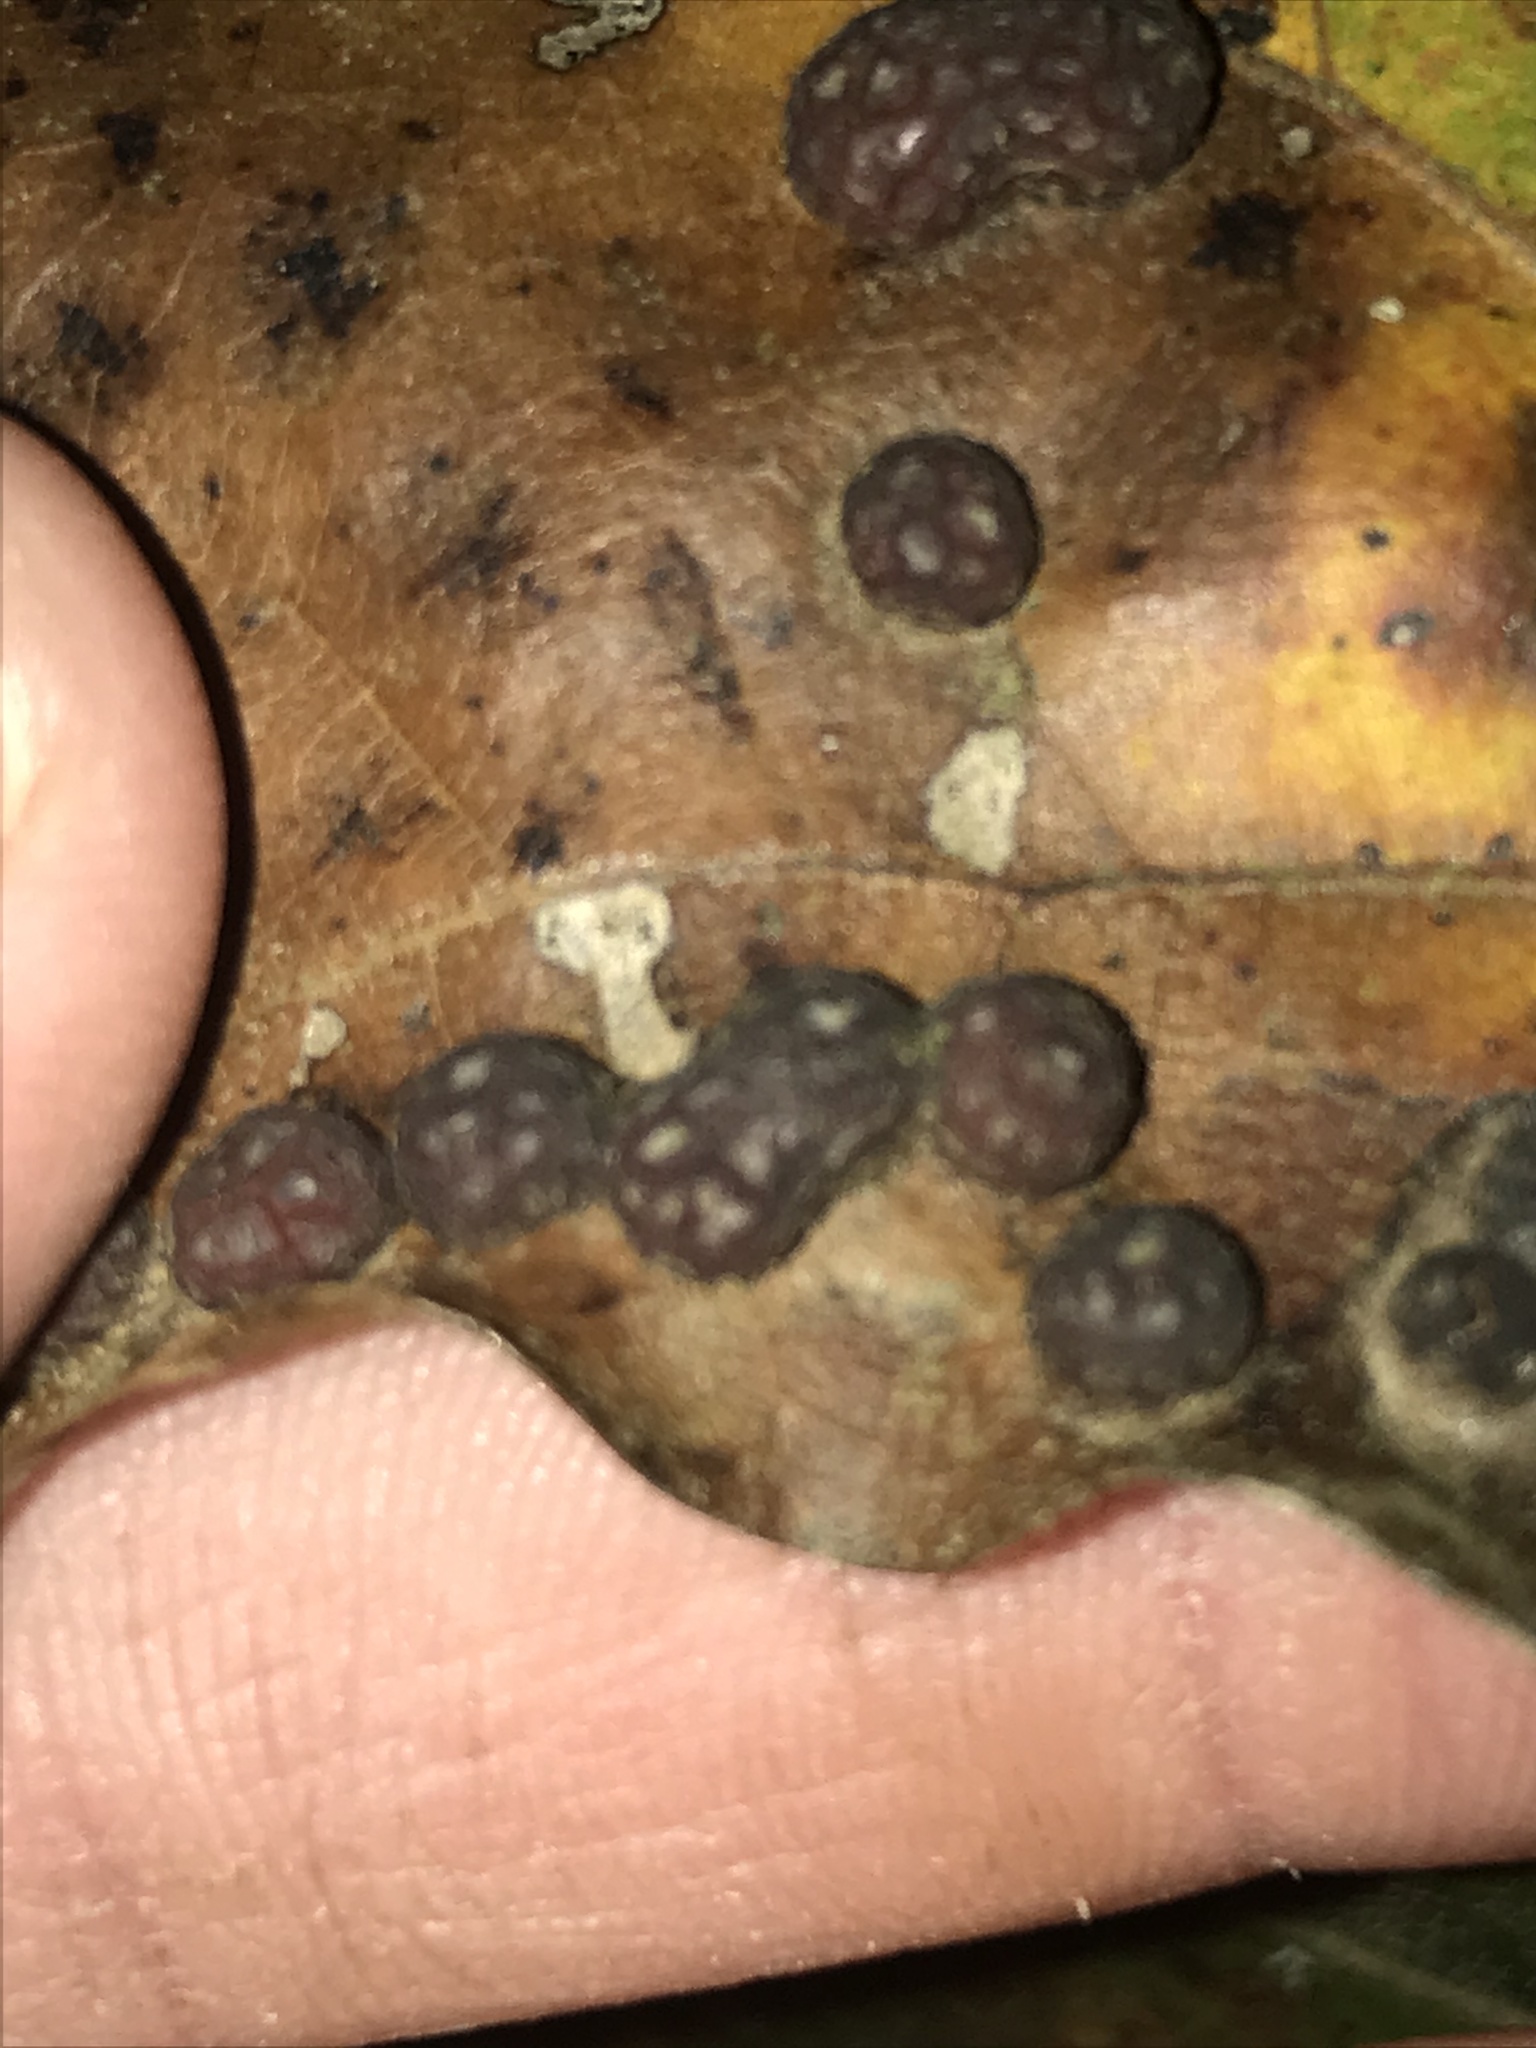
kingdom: Animalia
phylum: Arthropoda
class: Insecta
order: Diptera
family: Cecidomyiidae
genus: Polystepha
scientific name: Polystepha pilulae
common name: Oak leaf gall midge
